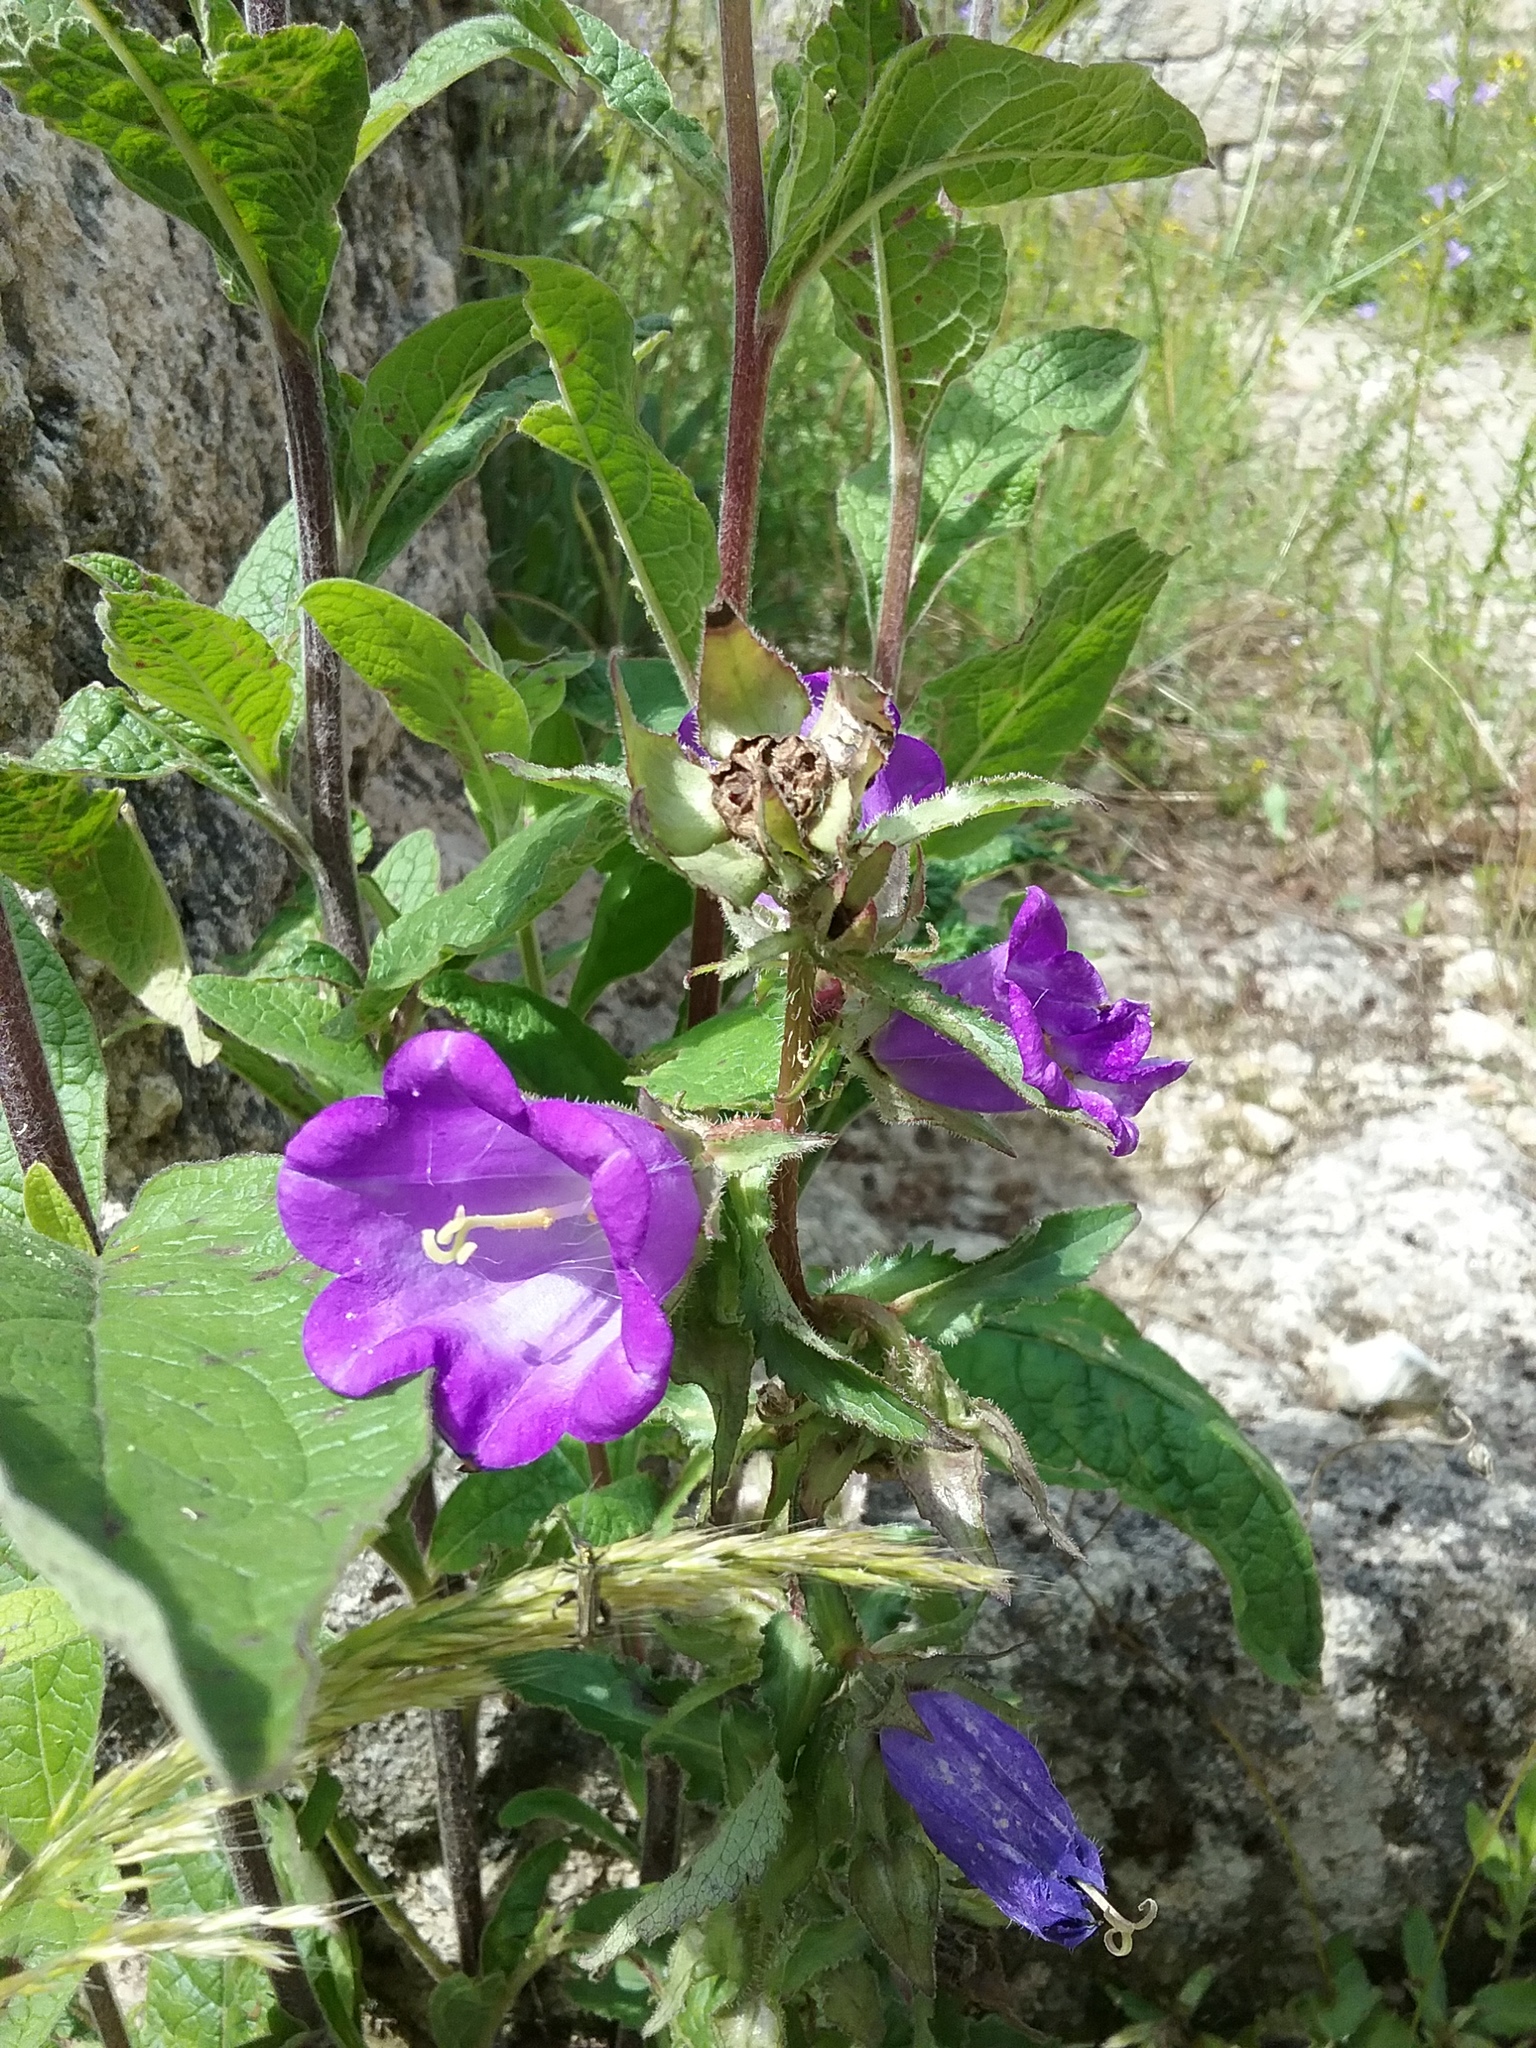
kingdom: Plantae
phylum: Tracheophyta
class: Magnoliopsida
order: Asterales
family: Campanulaceae
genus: Campanula
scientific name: Campanula medium
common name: Canterbury bells
